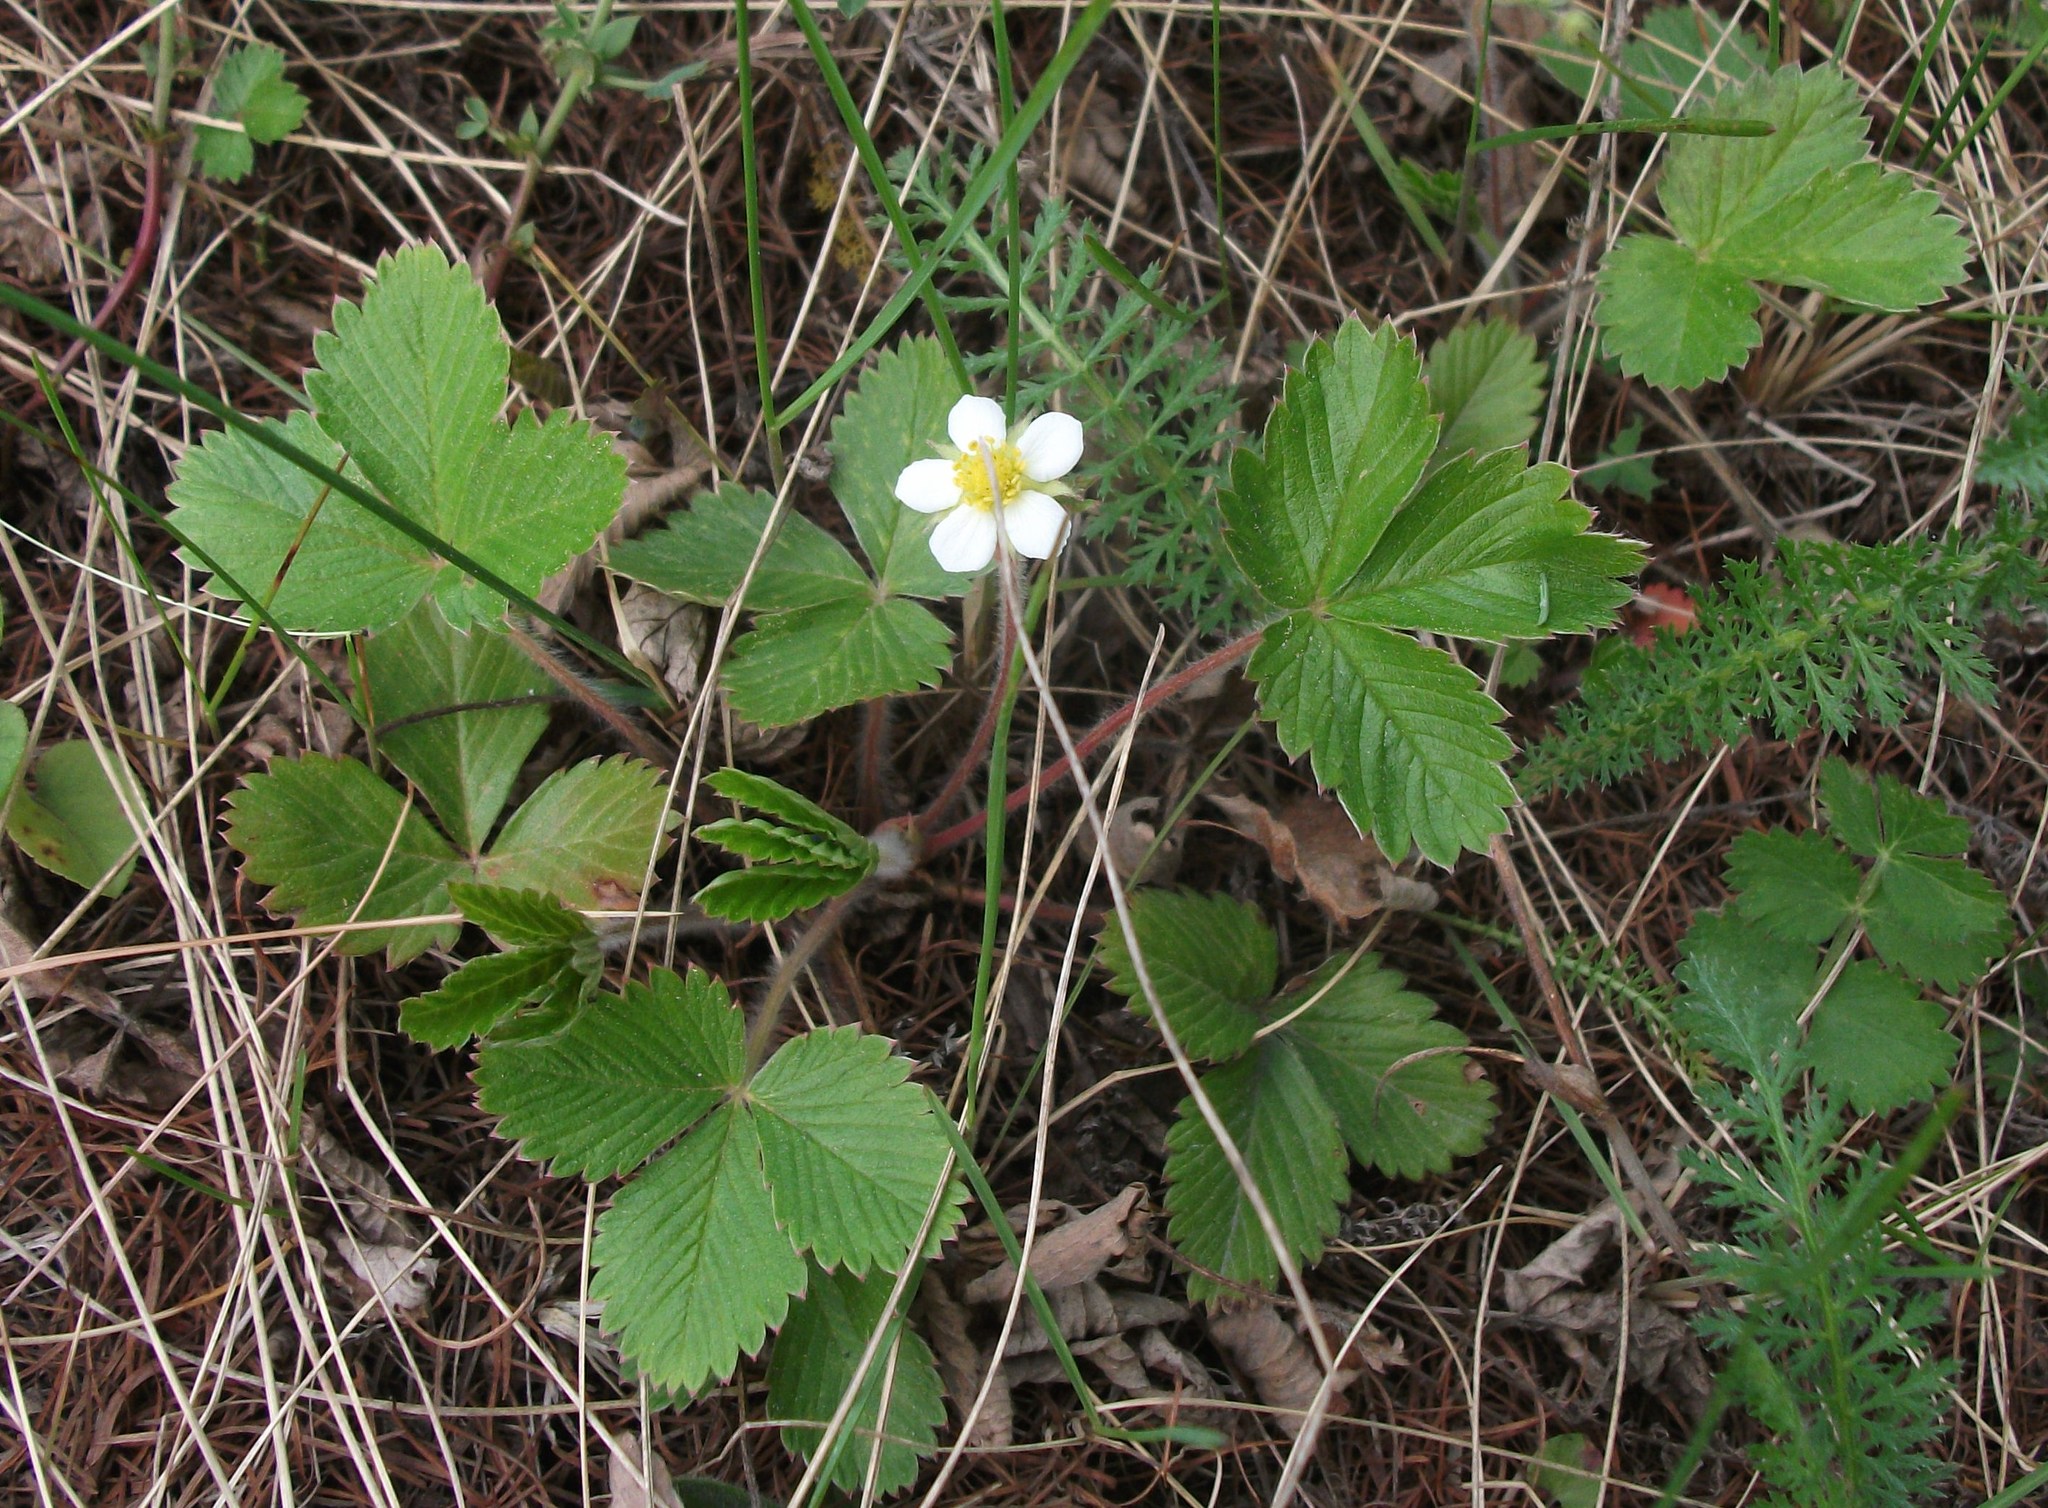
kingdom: Plantae
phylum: Tracheophyta
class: Magnoliopsida
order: Rosales
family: Rosaceae
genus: Fragaria
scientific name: Fragaria vesca
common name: Wild strawberry
